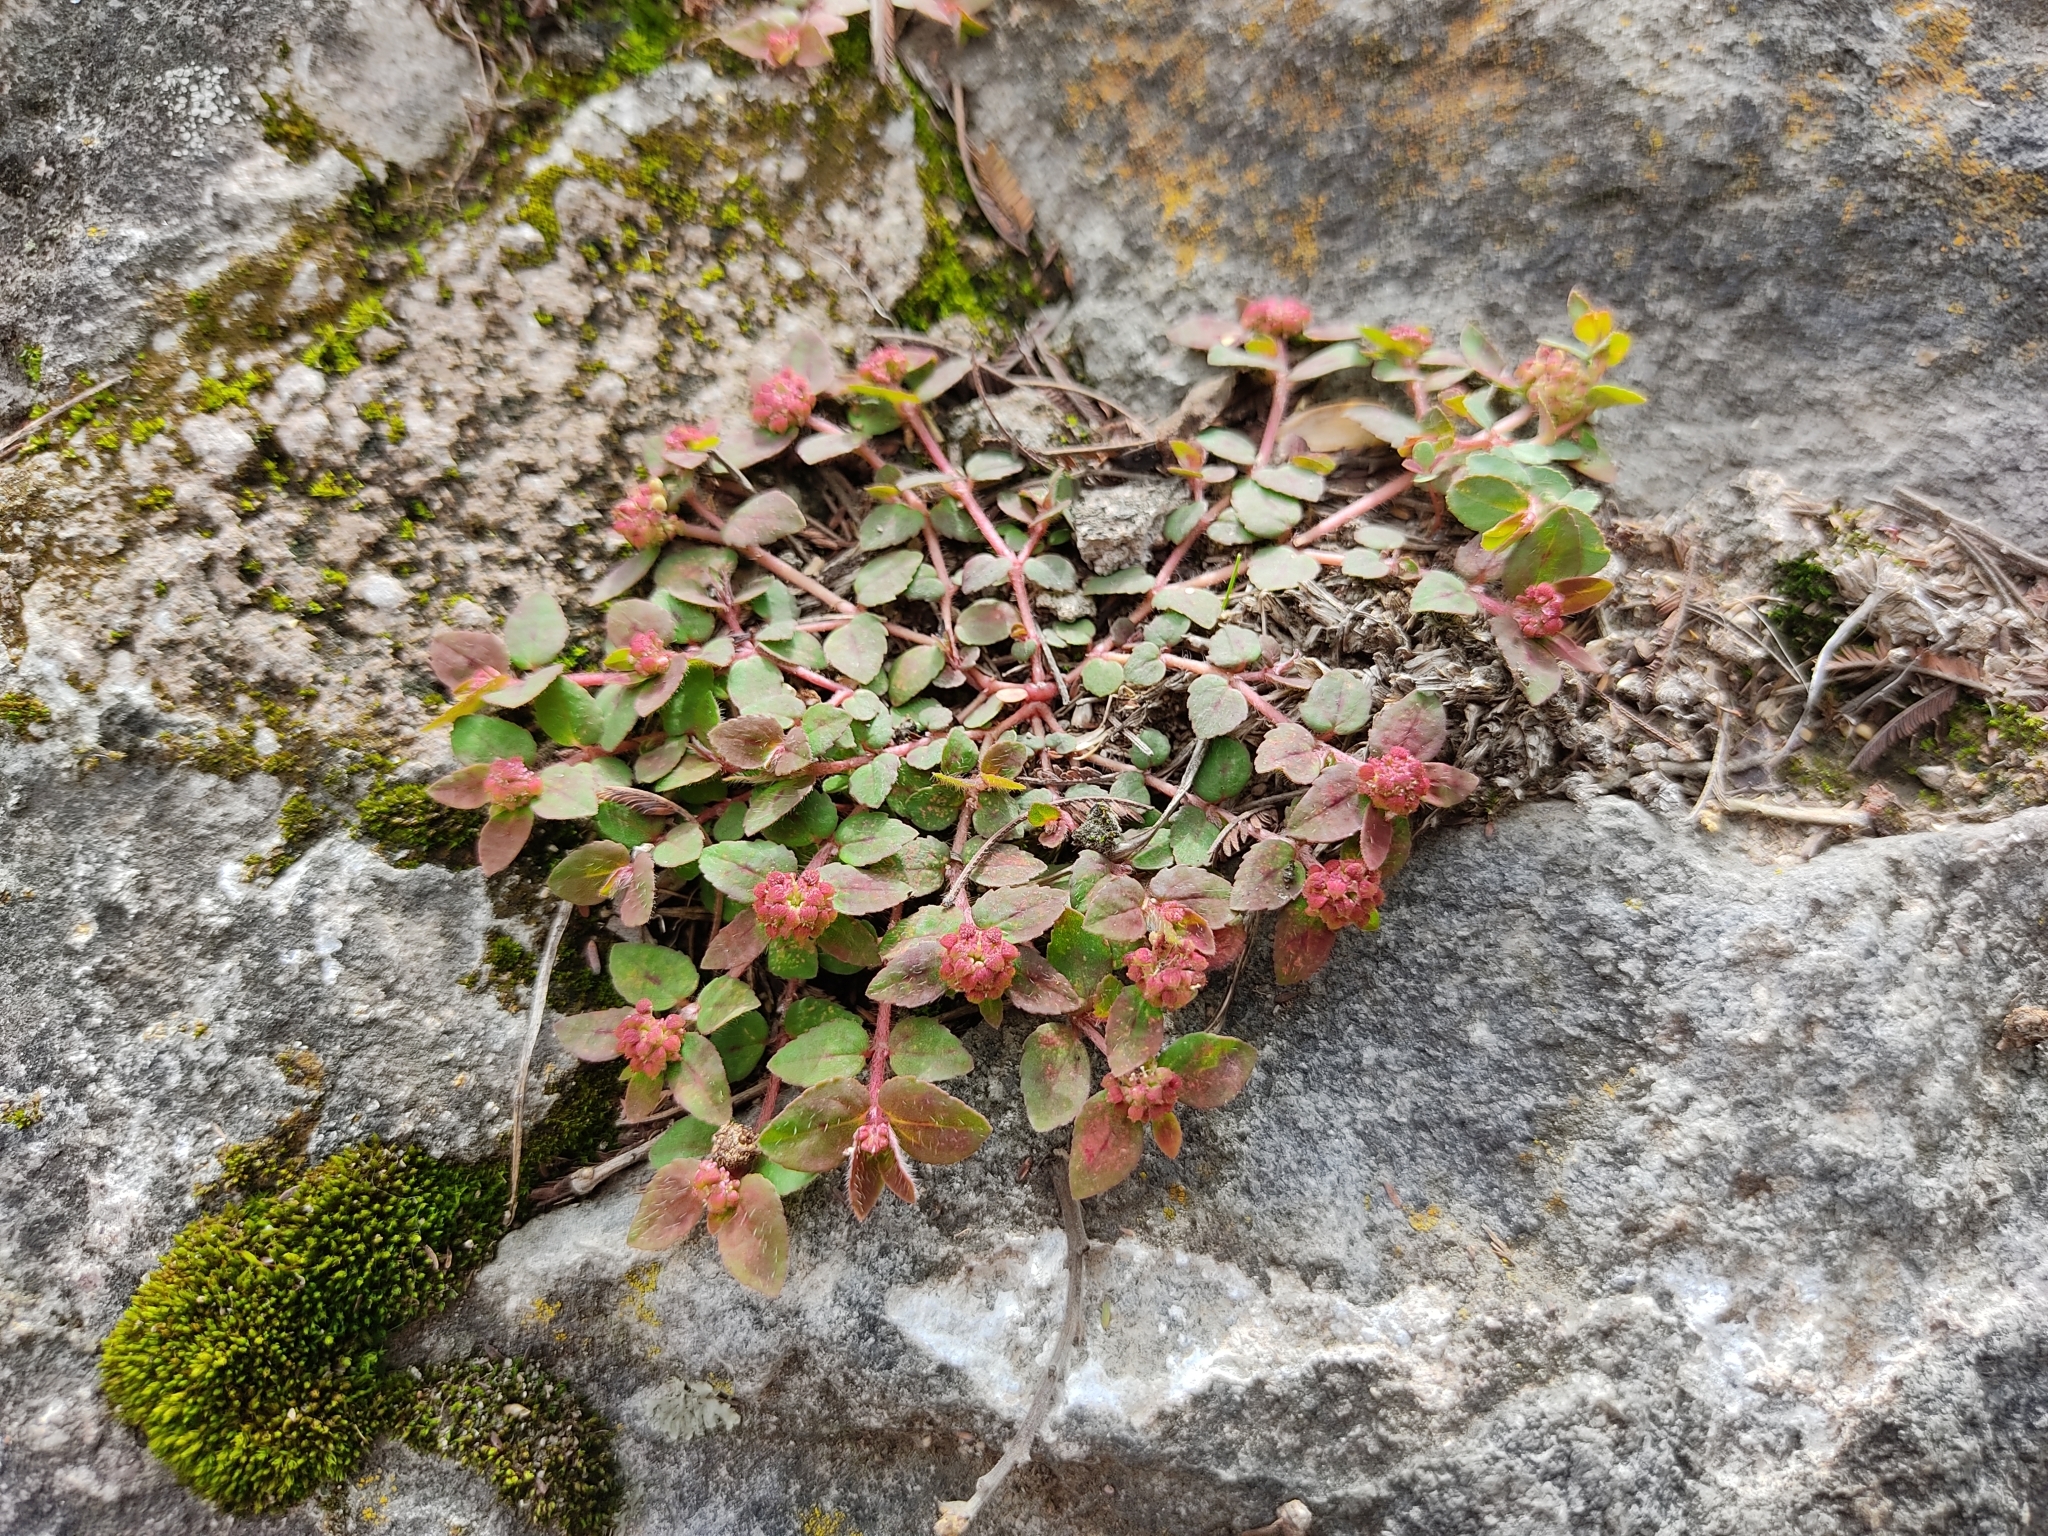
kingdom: Plantae
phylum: Tracheophyta
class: Magnoliopsida
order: Malpighiales
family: Euphorbiaceae
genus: Euphorbia
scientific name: Euphorbia ophthalmica
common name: Florida hammock sandmat
